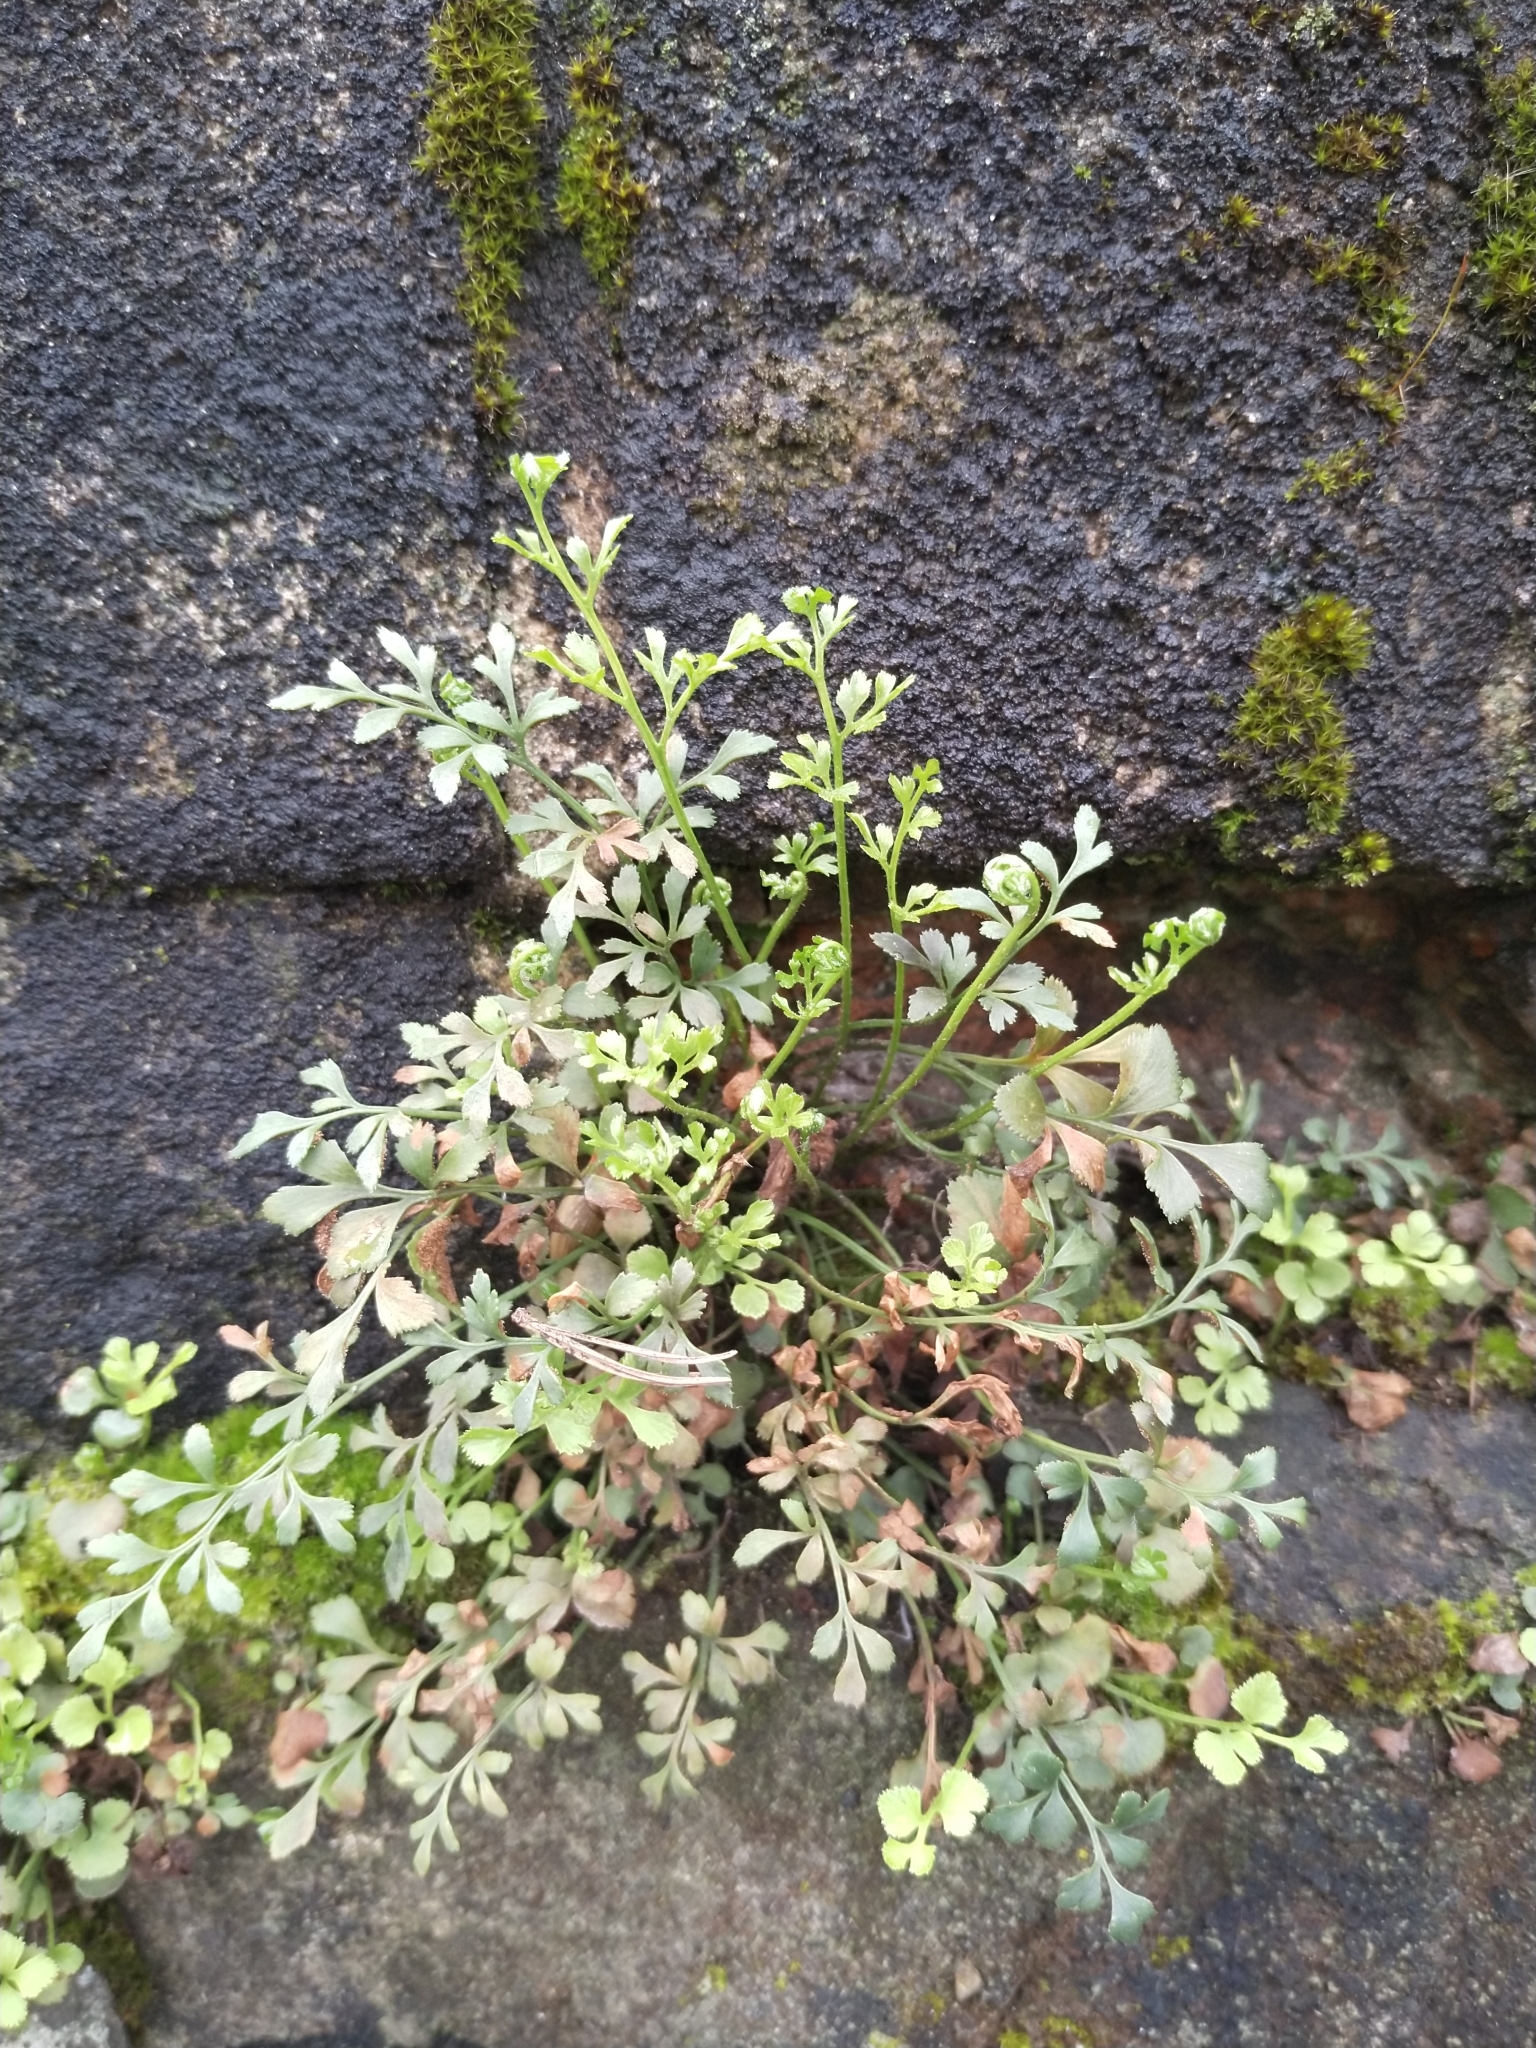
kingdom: Plantae
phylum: Tracheophyta
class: Polypodiopsida
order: Polypodiales
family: Aspleniaceae
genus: Asplenium
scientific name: Asplenium ruta-muraria
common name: Wall-rue
